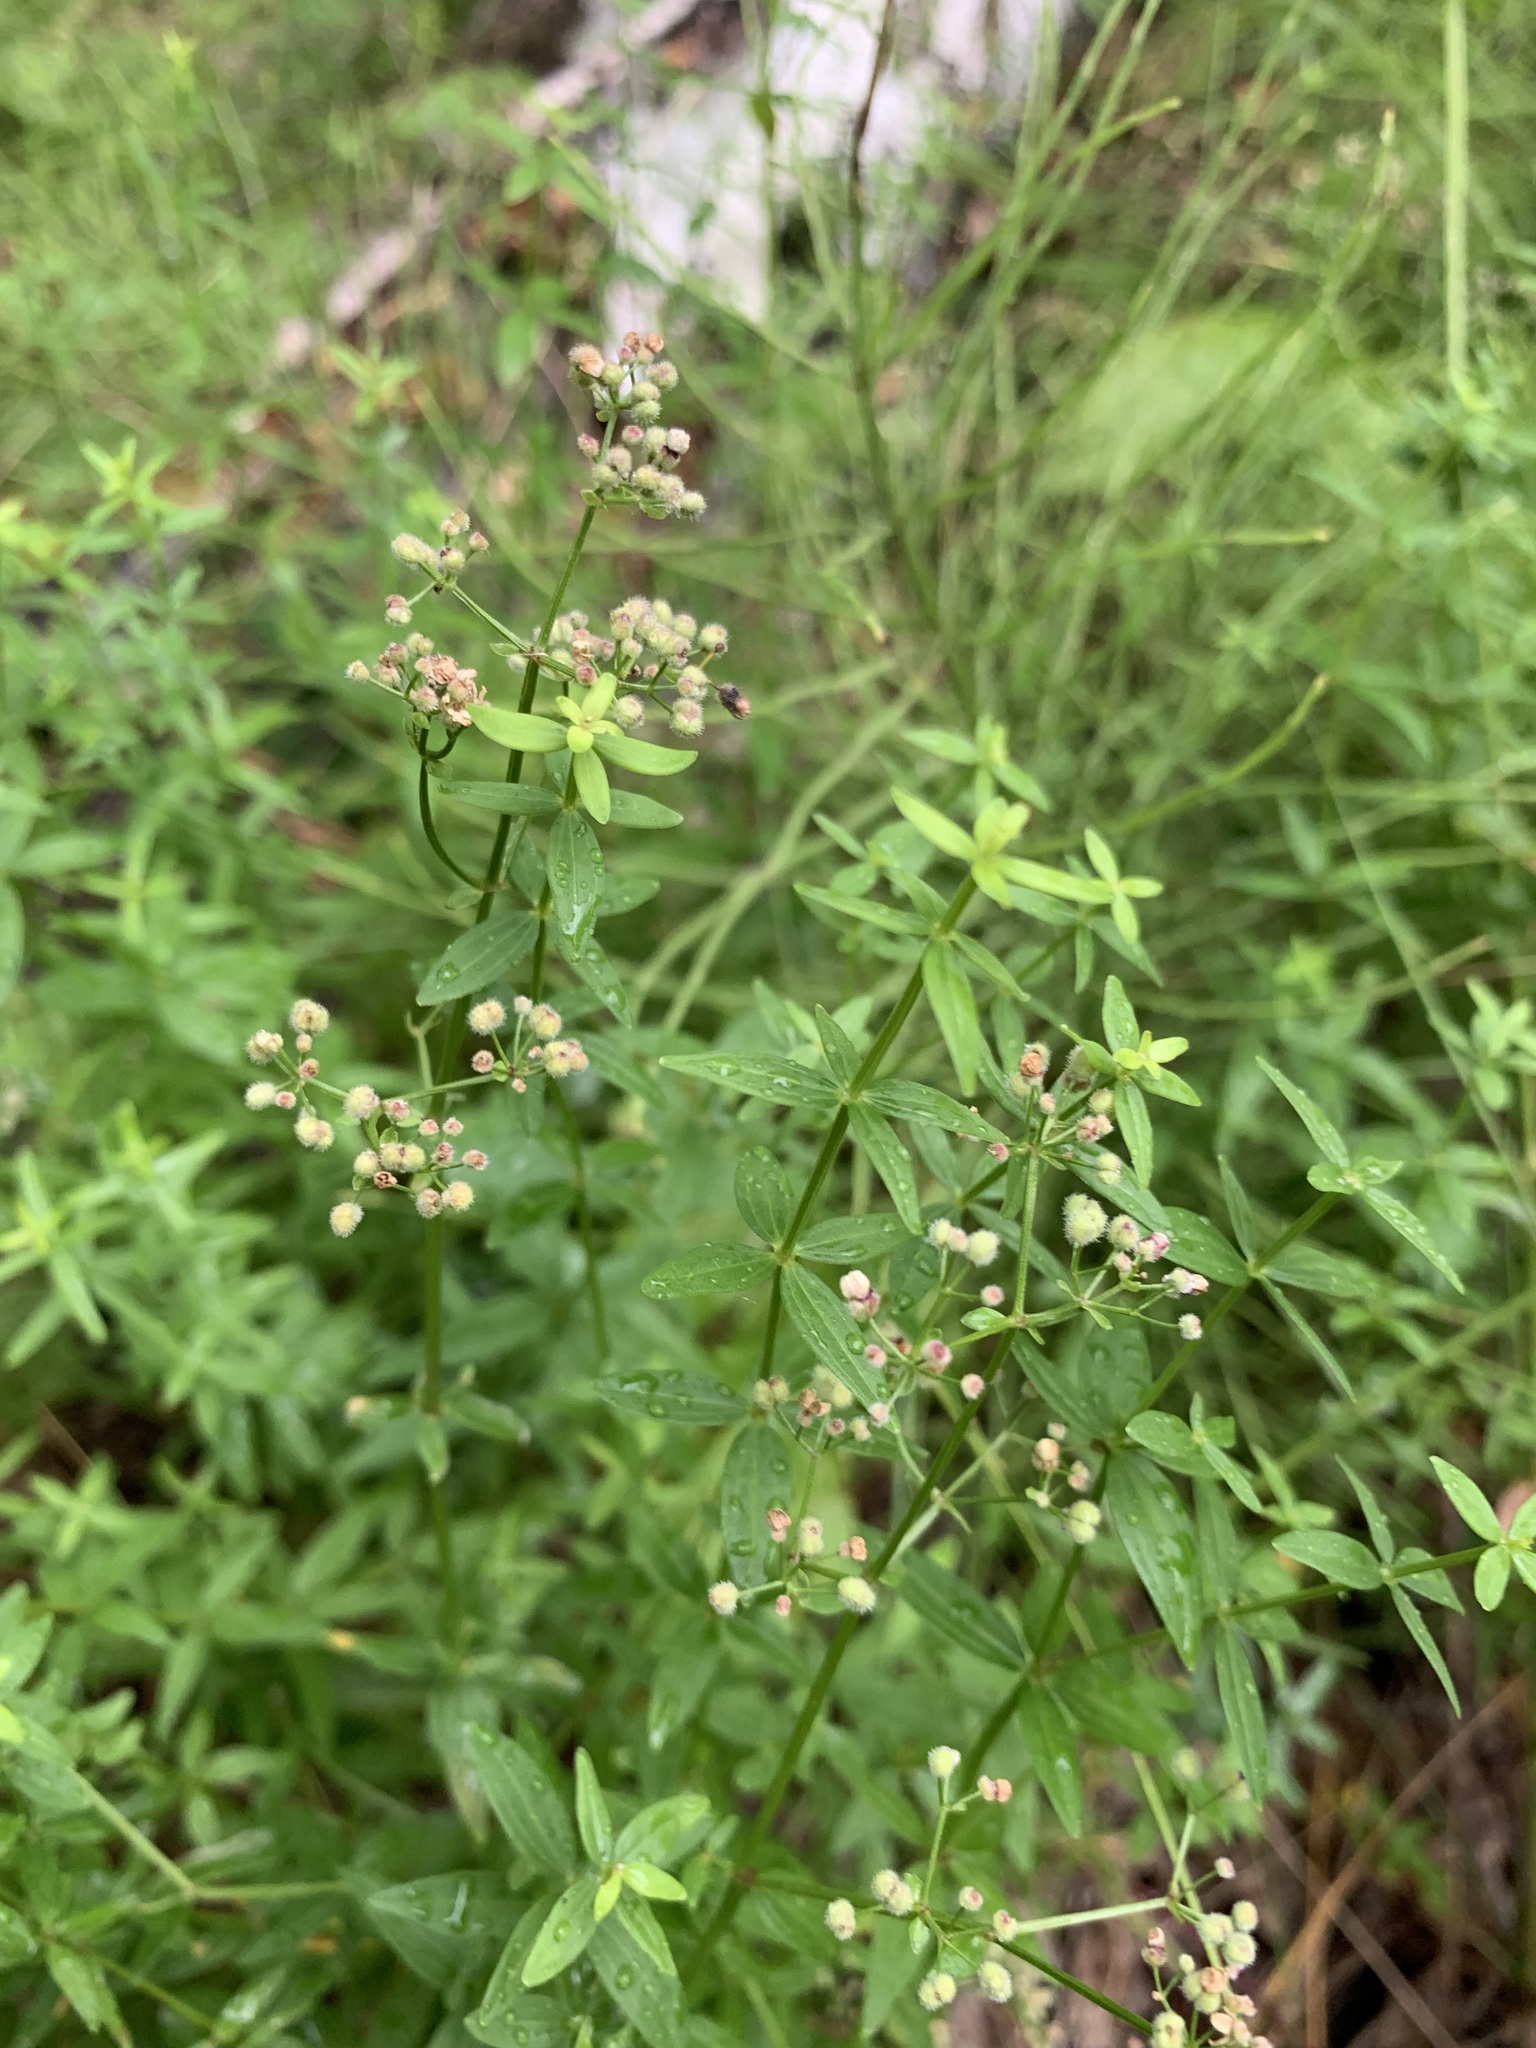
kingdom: Plantae
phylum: Tracheophyta
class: Magnoliopsida
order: Gentianales
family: Rubiaceae
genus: Galium
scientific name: Galium boreale
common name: Northern bedstraw
